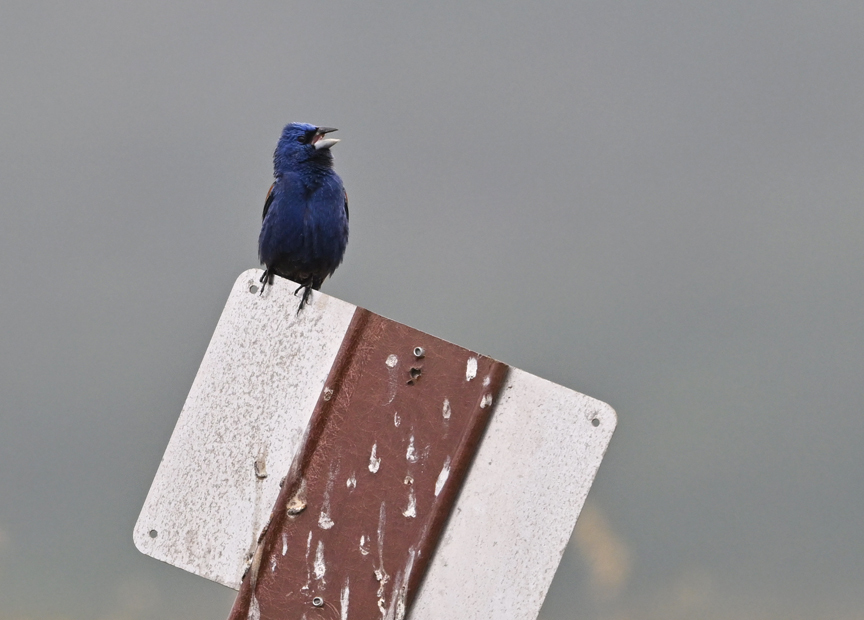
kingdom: Animalia
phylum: Chordata
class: Aves
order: Passeriformes
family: Cardinalidae
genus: Passerina
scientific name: Passerina caerulea
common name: Blue grosbeak
